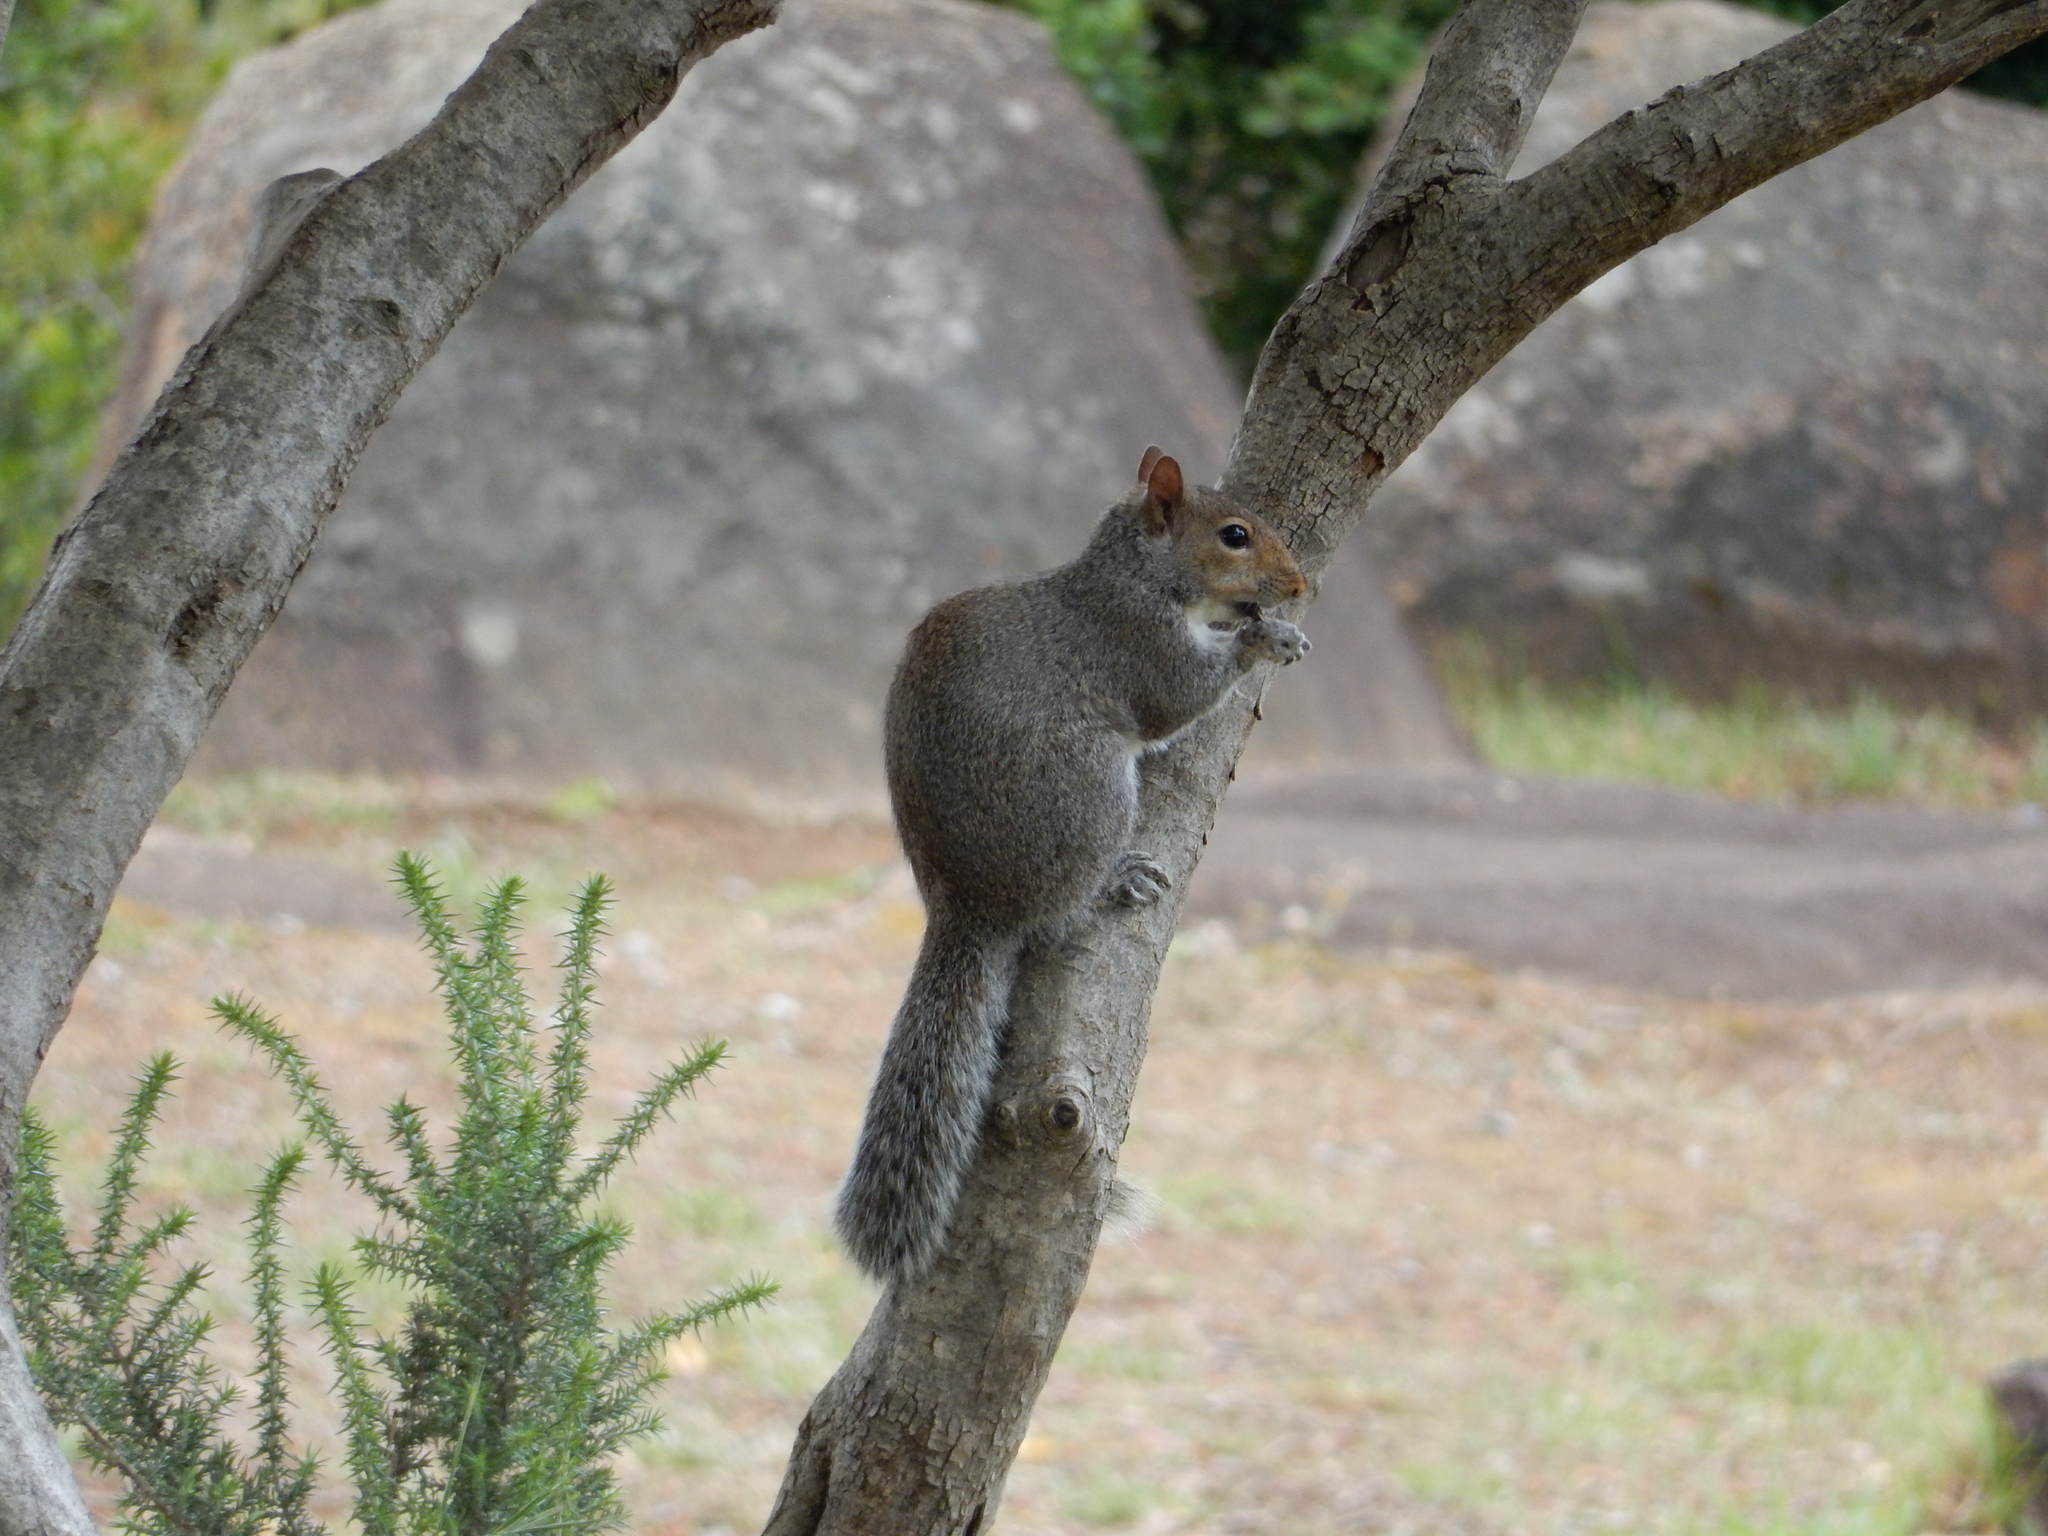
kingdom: Animalia
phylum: Chordata
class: Mammalia
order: Rodentia
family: Sciuridae
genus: Sciurus
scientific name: Sciurus carolinensis
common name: Eastern gray squirrel
